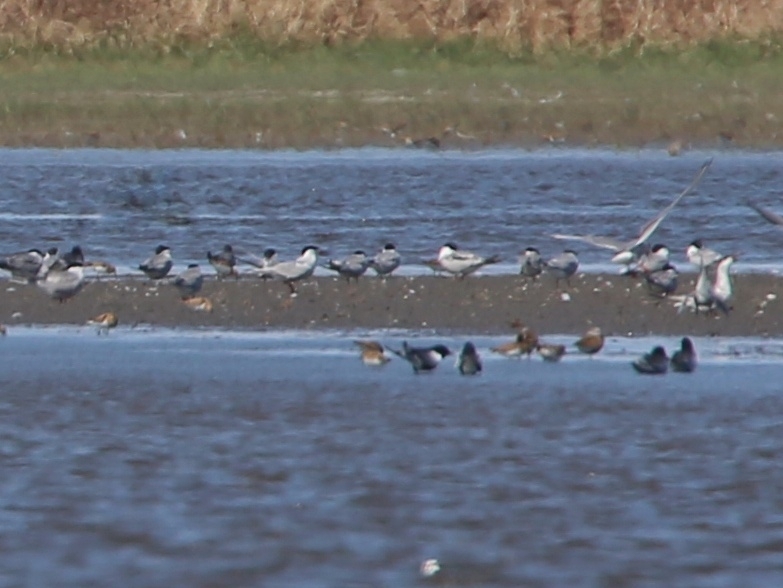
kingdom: Animalia
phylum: Chordata
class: Aves
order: Charadriiformes
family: Laridae
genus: Sterna
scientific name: Sterna hirundo
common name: Common tern
